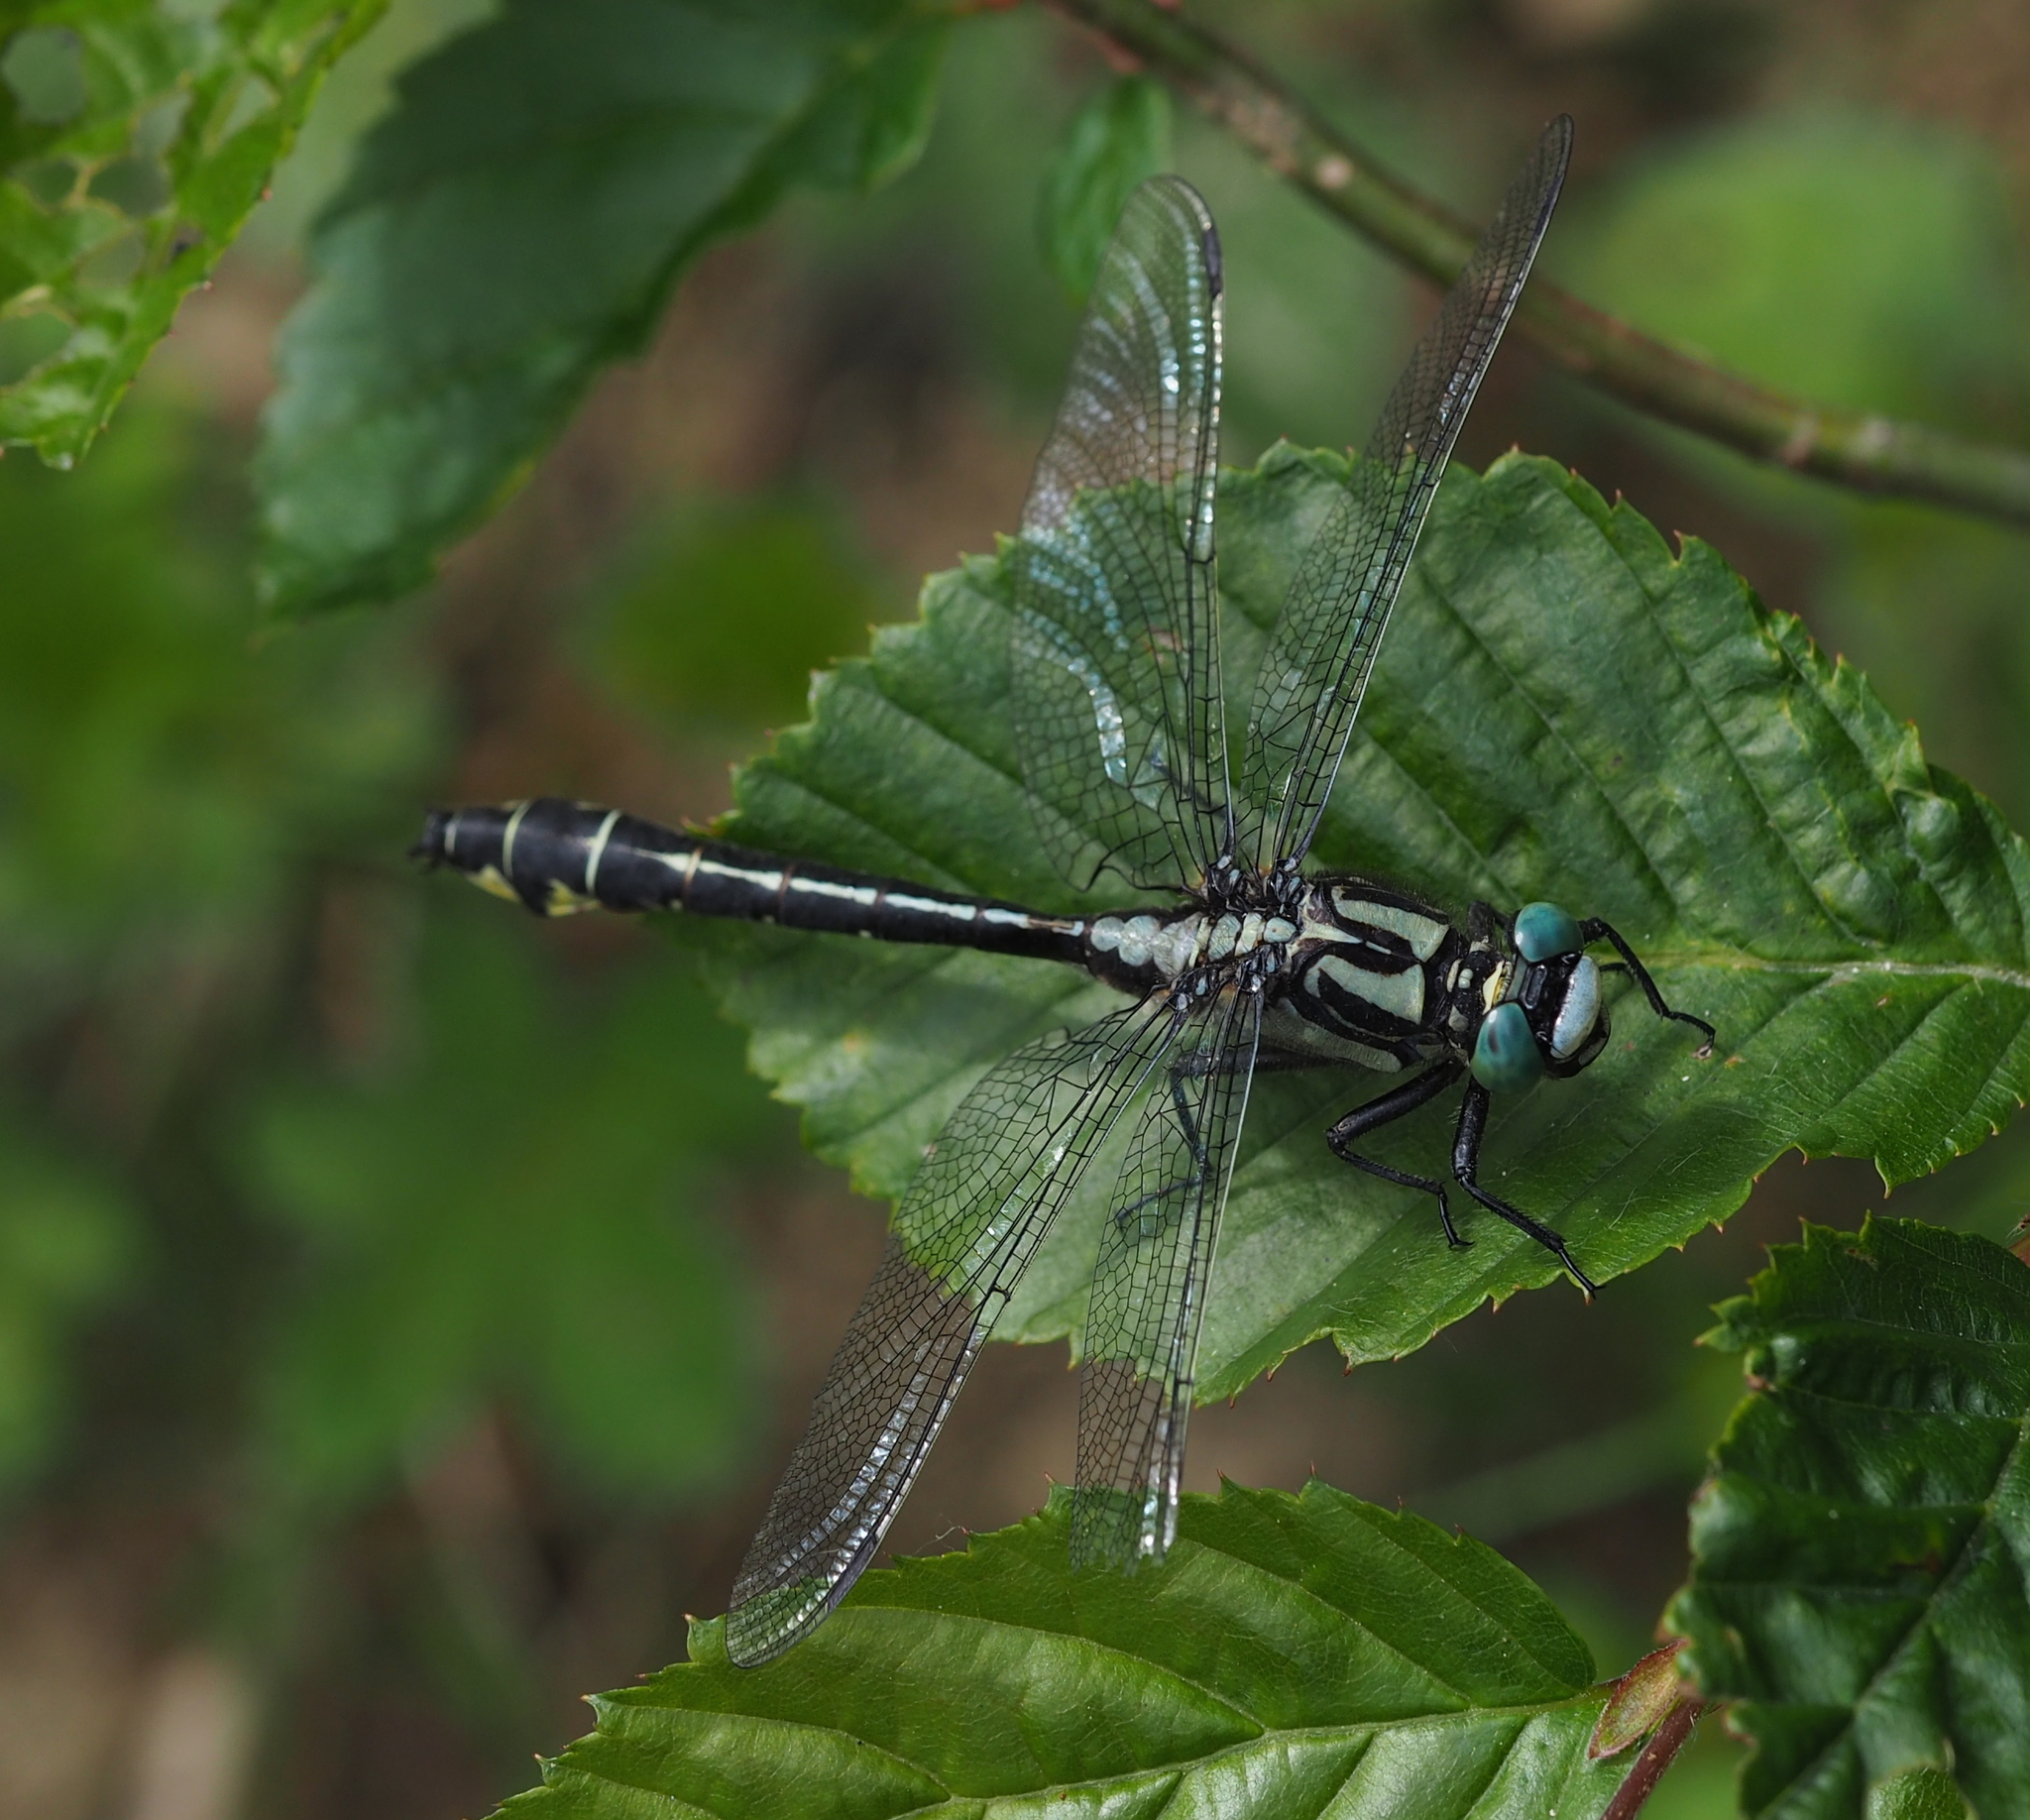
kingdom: Animalia
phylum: Arthropoda
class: Insecta
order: Odonata
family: Gomphidae
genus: Gomphus
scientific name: Gomphus vulgatissimus
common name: Club-tailed dragonfly
